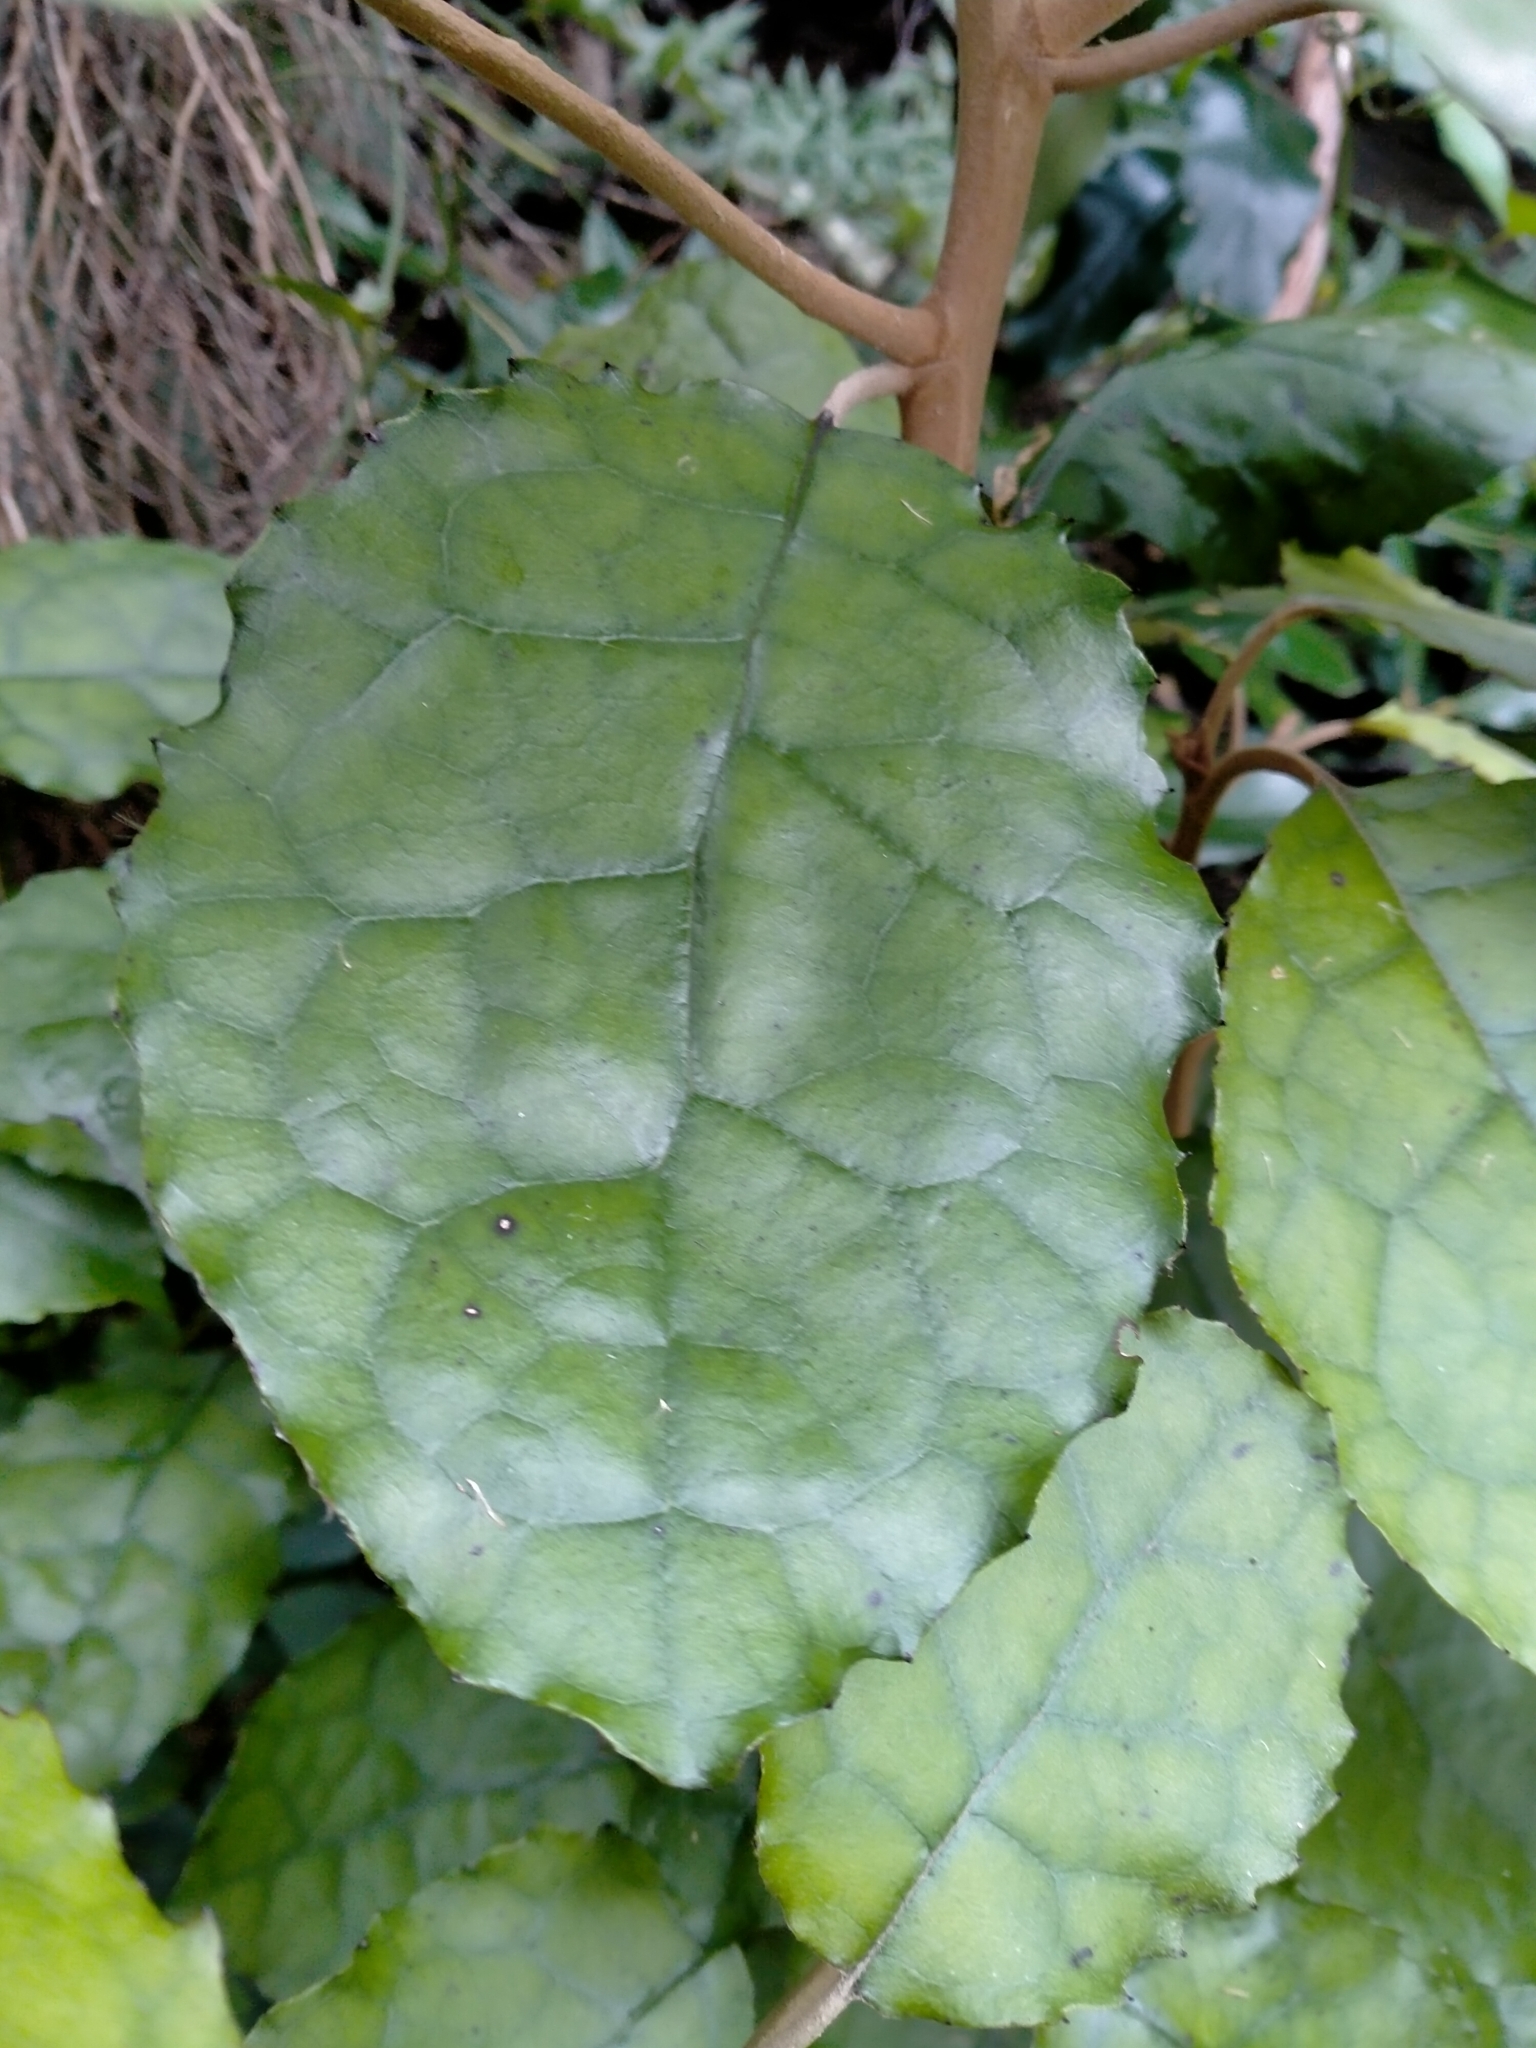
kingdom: Plantae
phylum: Tracheophyta
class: Magnoliopsida
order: Asterales
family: Asteraceae
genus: Brachyglottis
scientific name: Brachyglottis repanda
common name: Hedge ragwort
